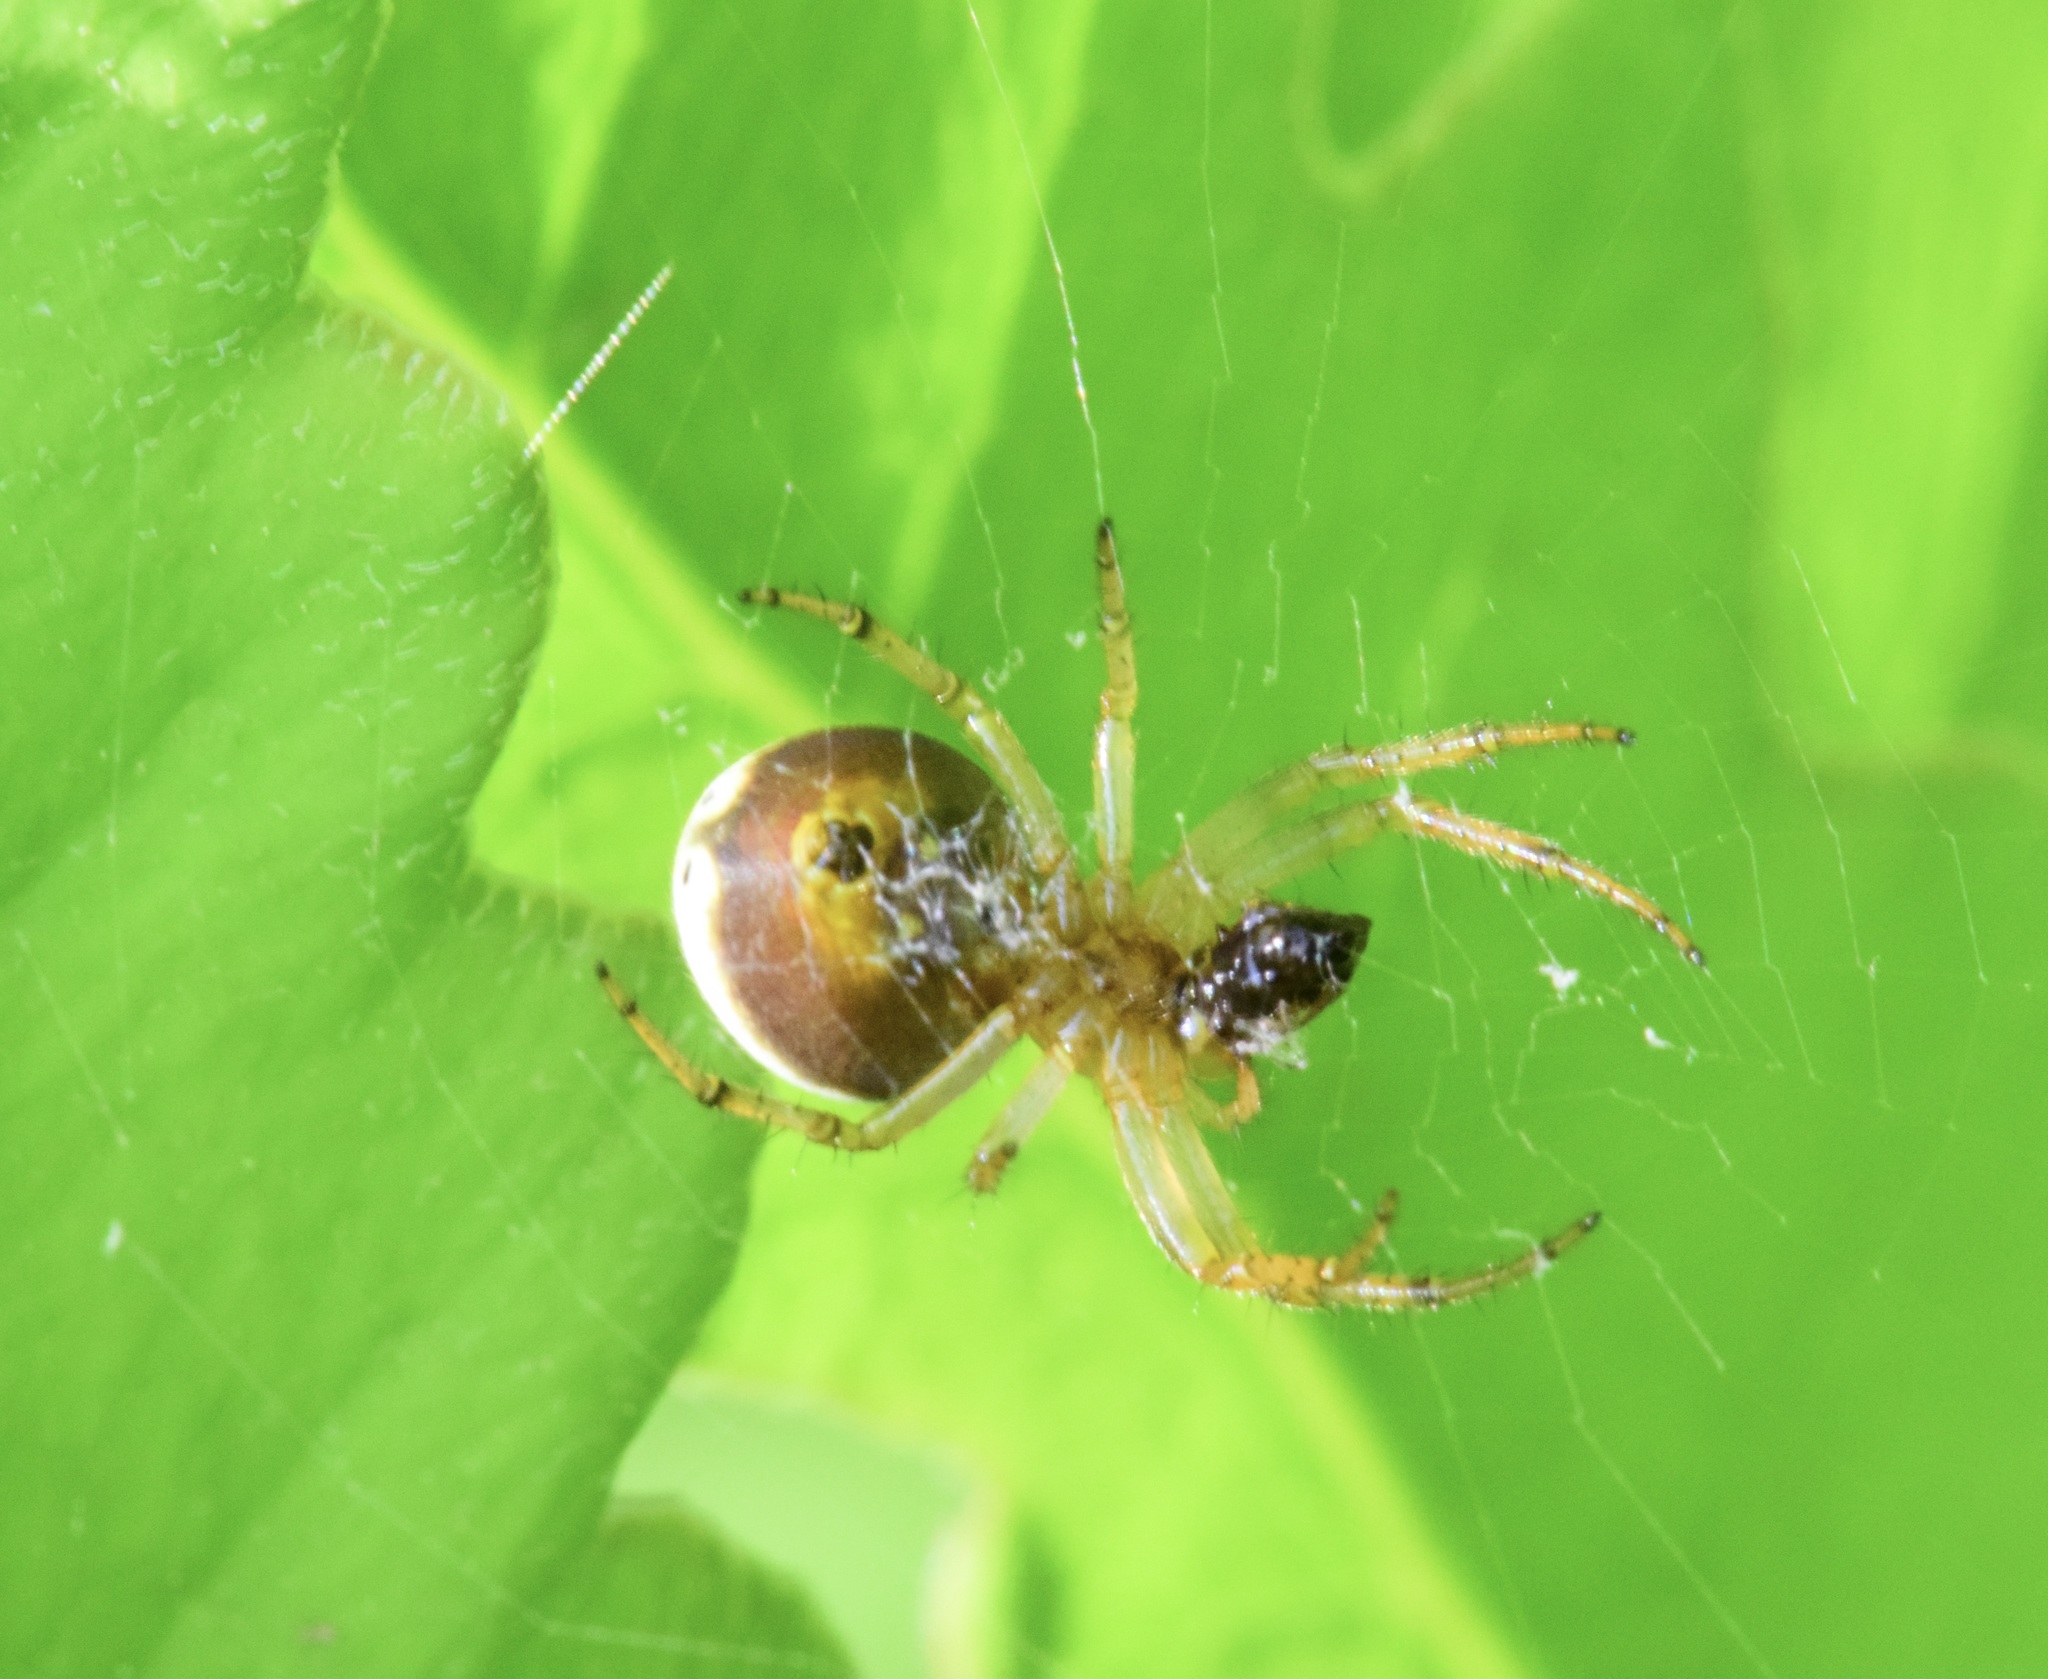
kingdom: Animalia
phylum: Arthropoda
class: Arachnida
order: Araneae
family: Araneidae
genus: Araniella
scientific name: Araniella displicata
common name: Sixspotted orb weaver
